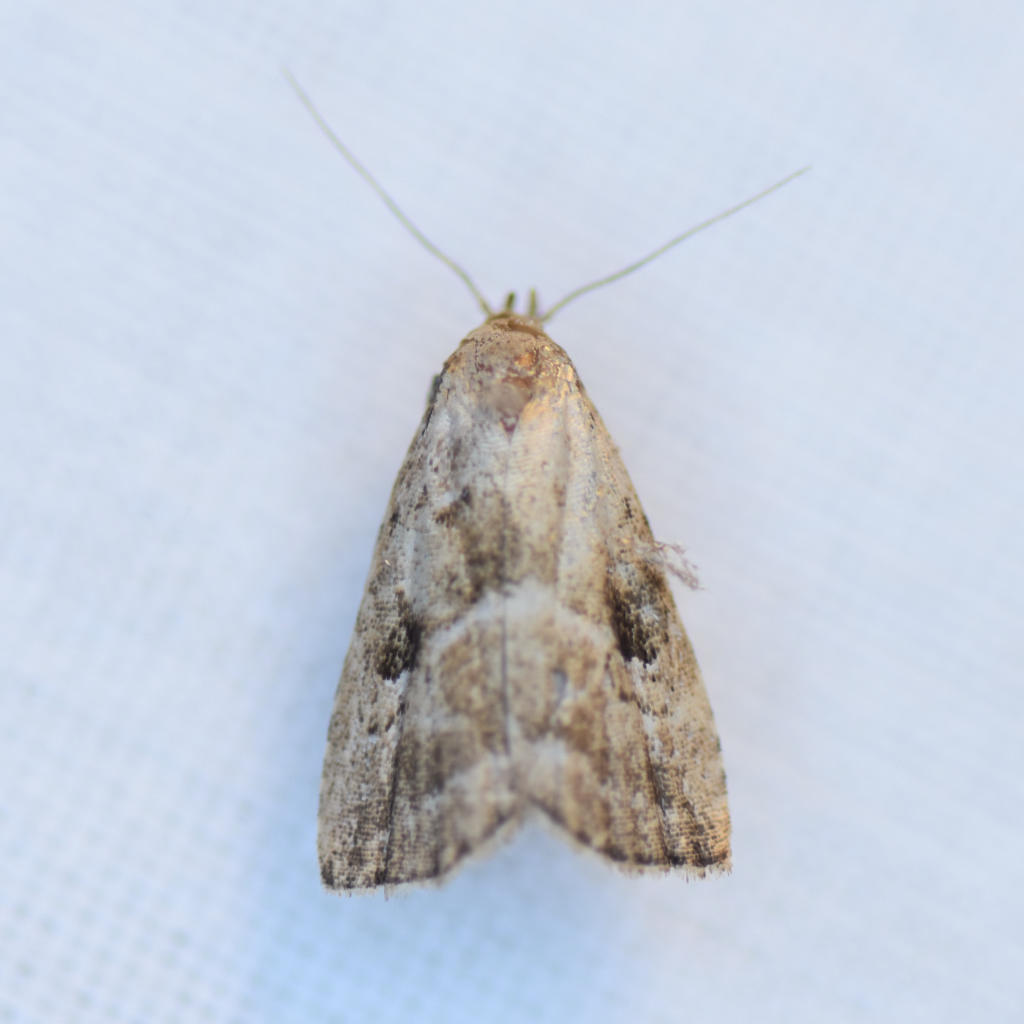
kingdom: Animalia
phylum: Arthropoda
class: Insecta
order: Lepidoptera
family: Erebidae
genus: Hypenodes
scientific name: Hypenodes fractilinea
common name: Broken-line hypenodes moth
